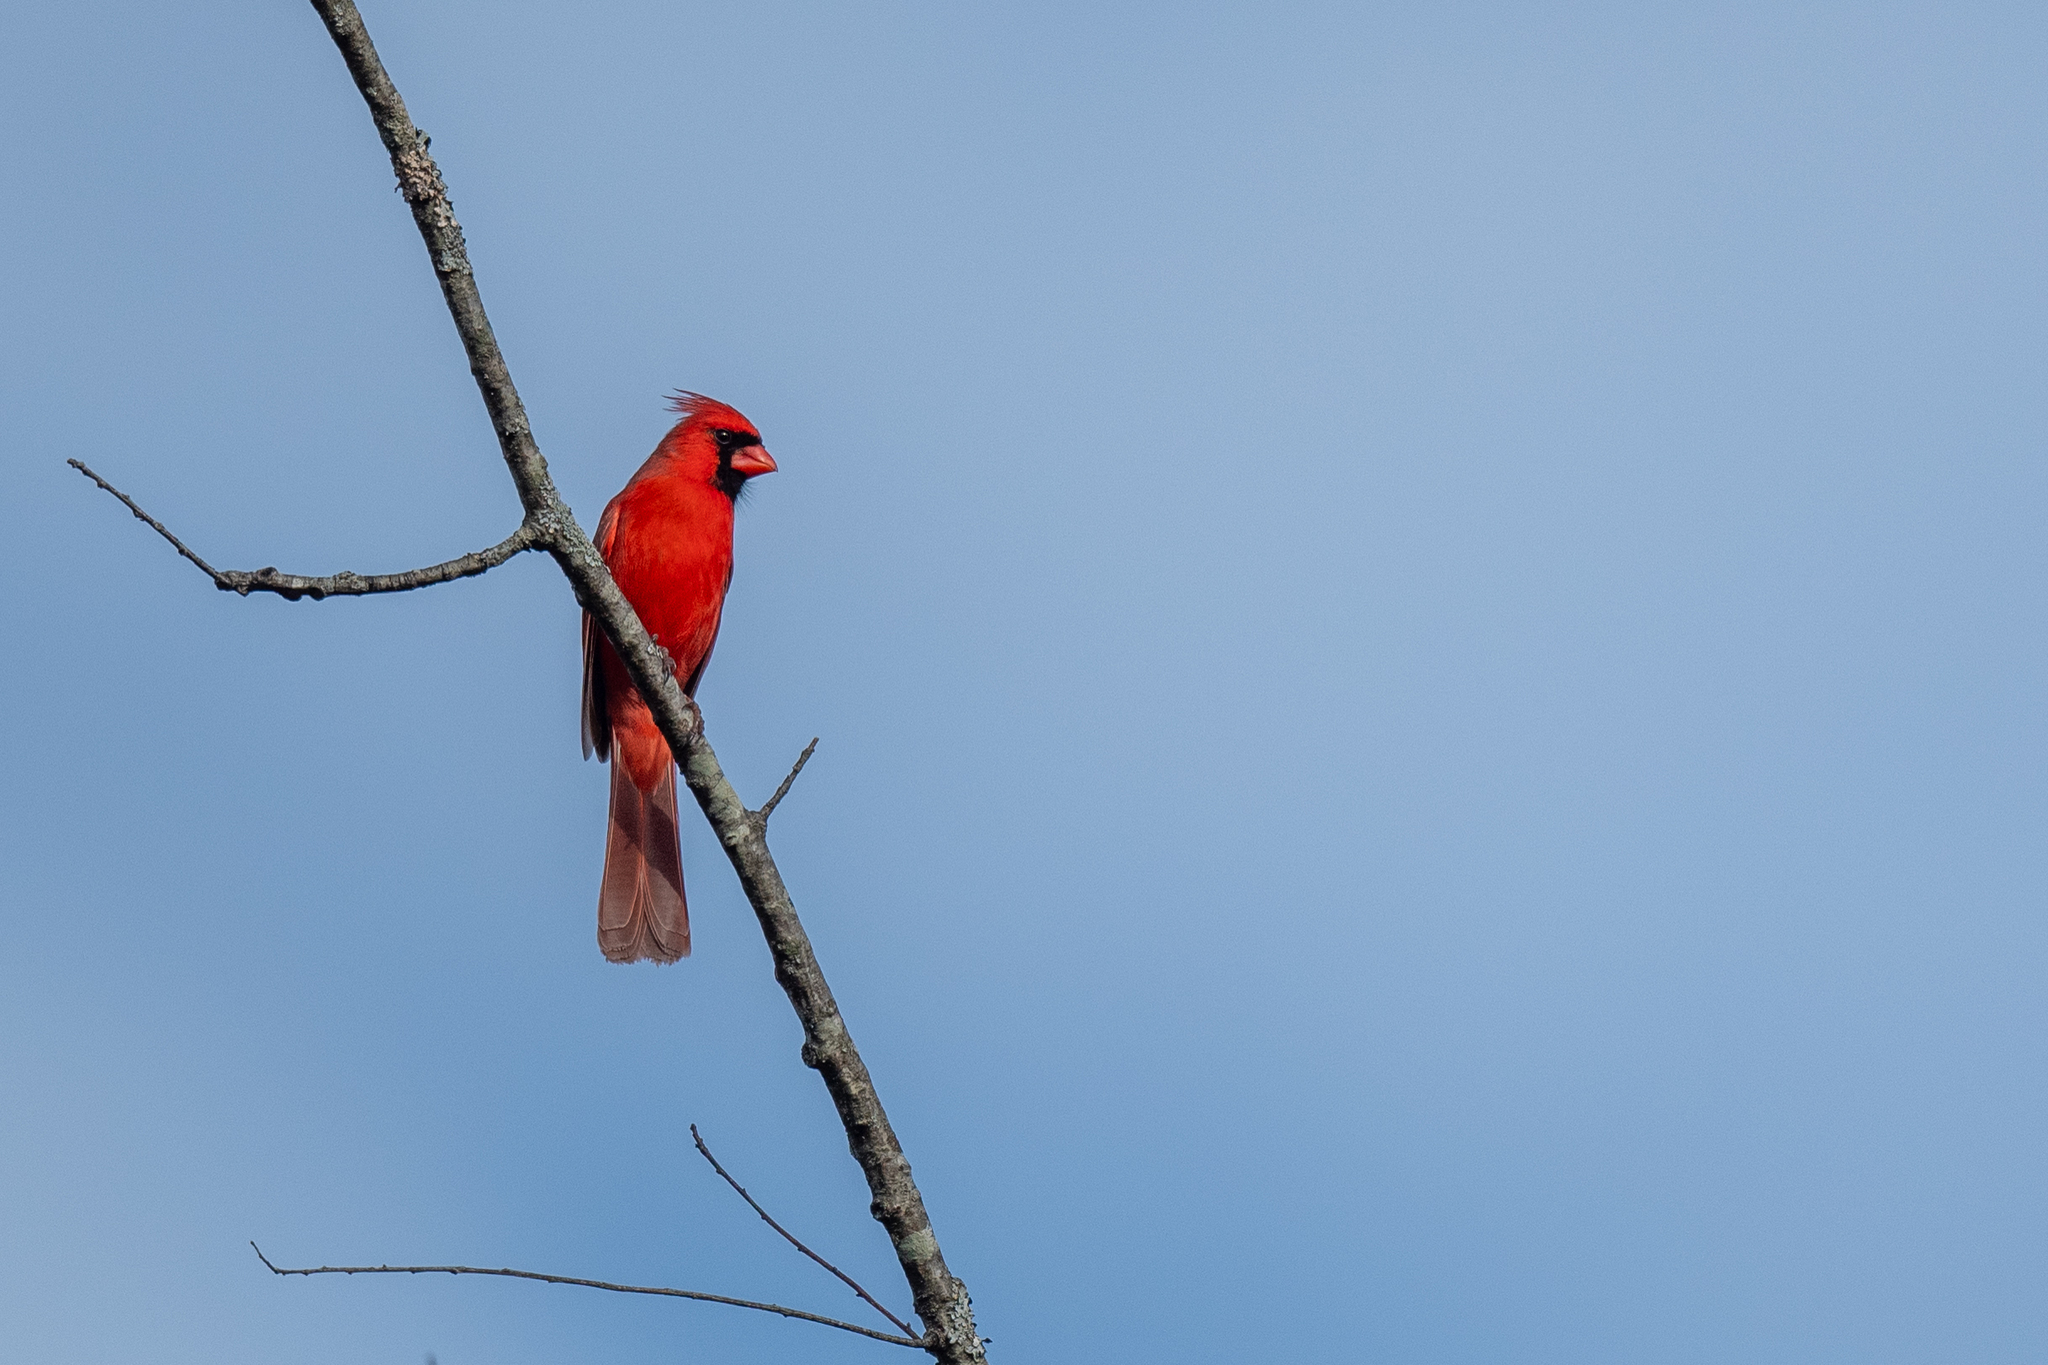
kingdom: Animalia
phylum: Chordata
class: Aves
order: Passeriformes
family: Cardinalidae
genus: Cardinalis
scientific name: Cardinalis cardinalis
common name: Northern cardinal
